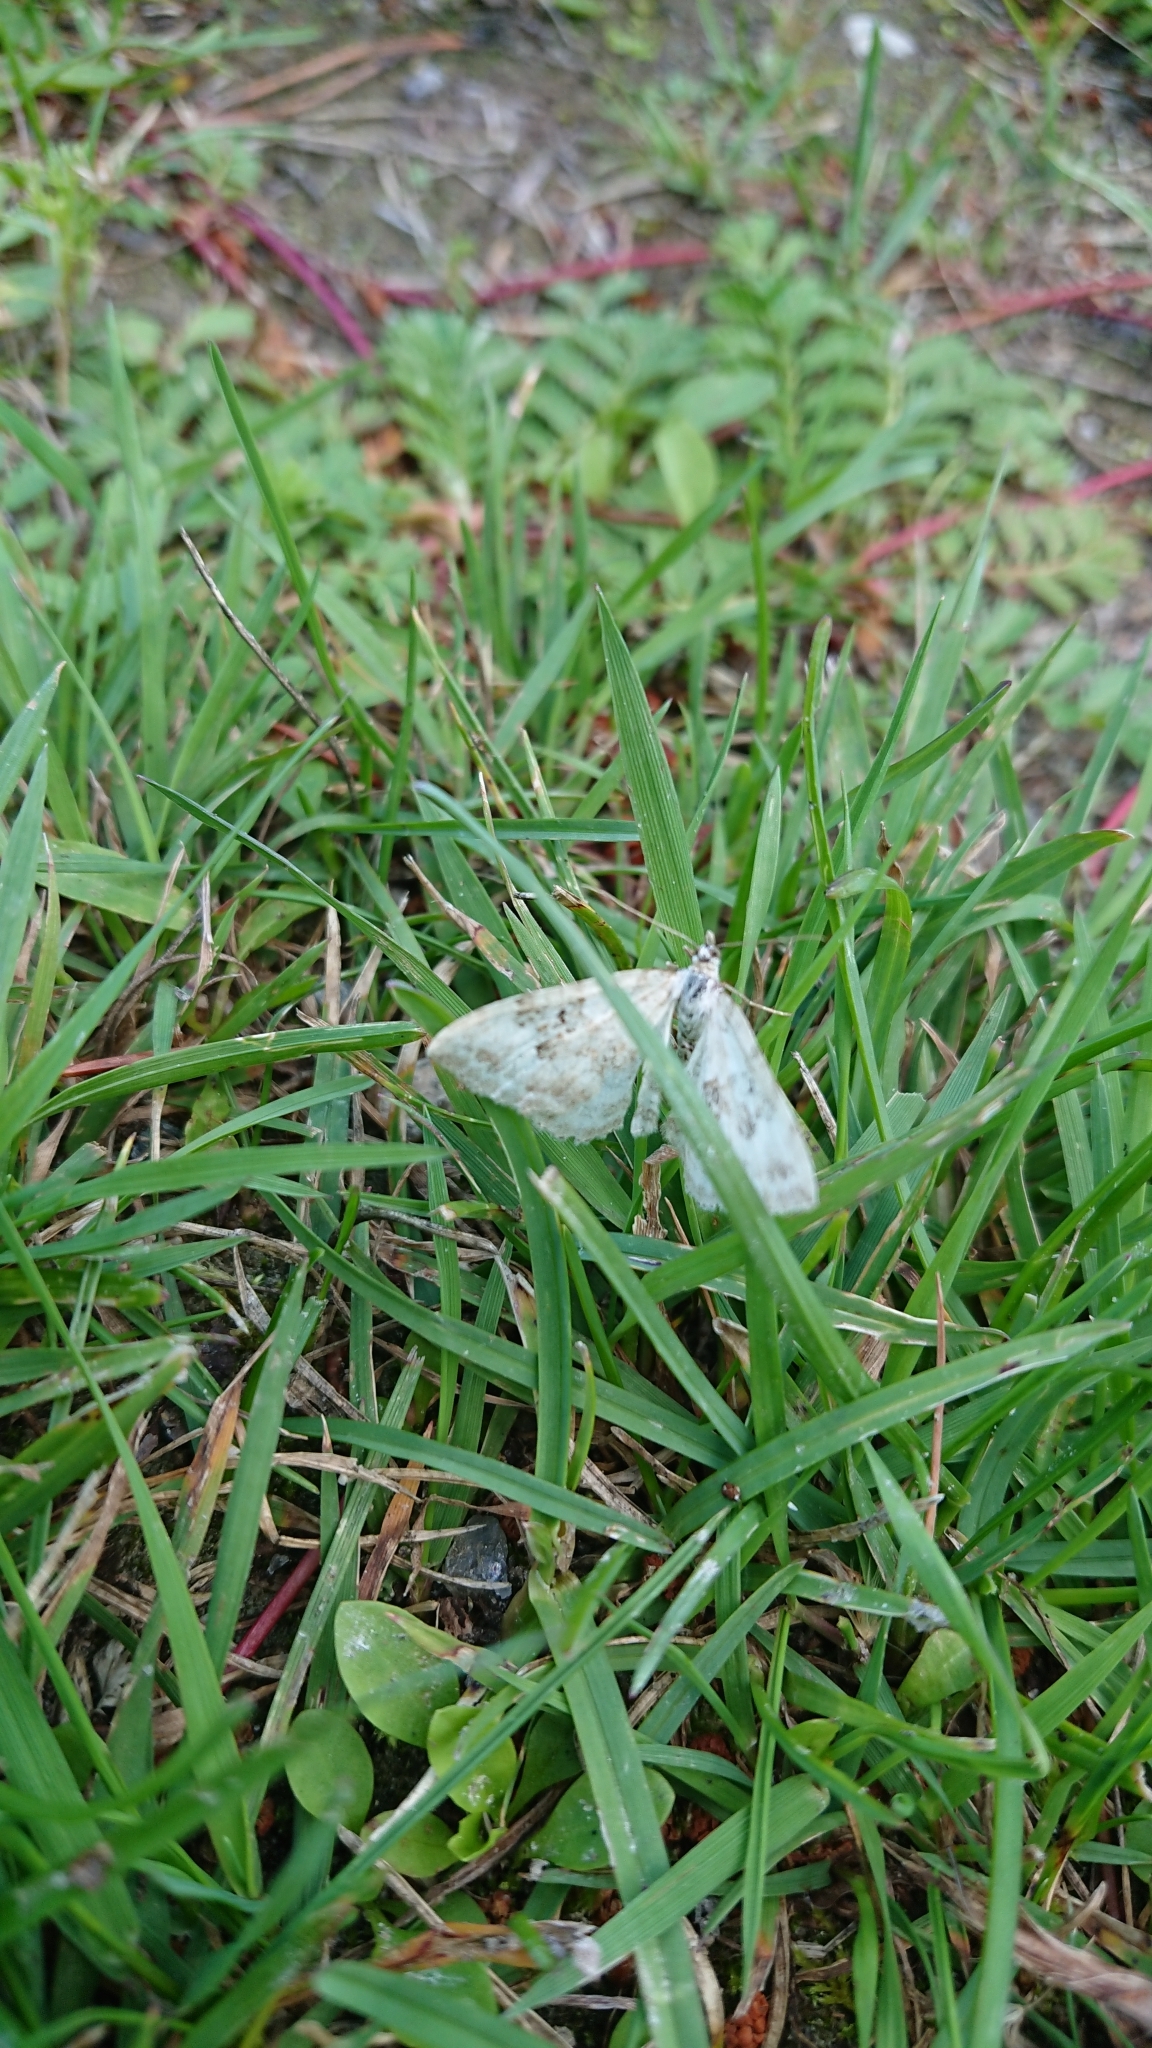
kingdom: Animalia
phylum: Arthropoda
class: Insecta
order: Lepidoptera
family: Geometridae
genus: Xanthorhoe
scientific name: Xanthorhoe montanata
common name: Silver-ground carpet
